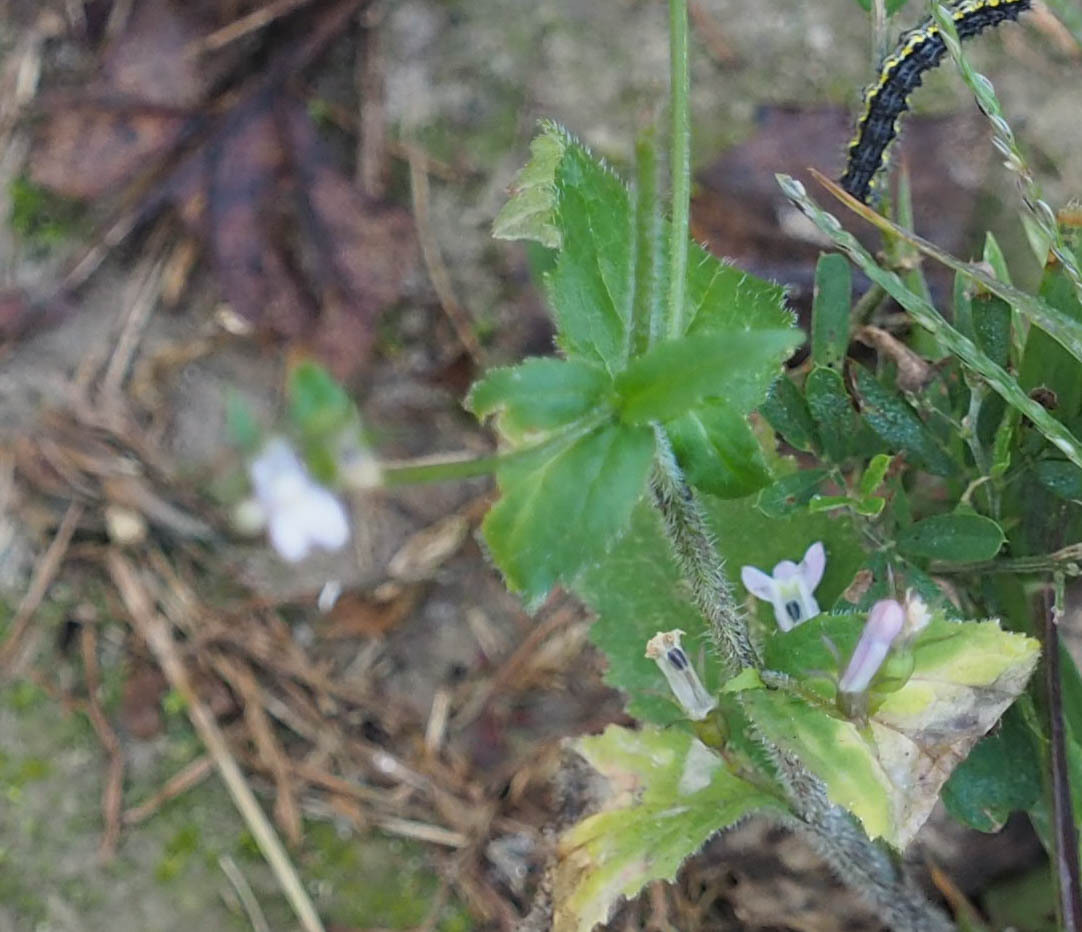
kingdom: Plantae
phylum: Tracheophyta
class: Magnoliopsida
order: Asterales
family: Campanulaceae
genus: Lobelia
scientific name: Lobelia inflata
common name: Indian tobacco
